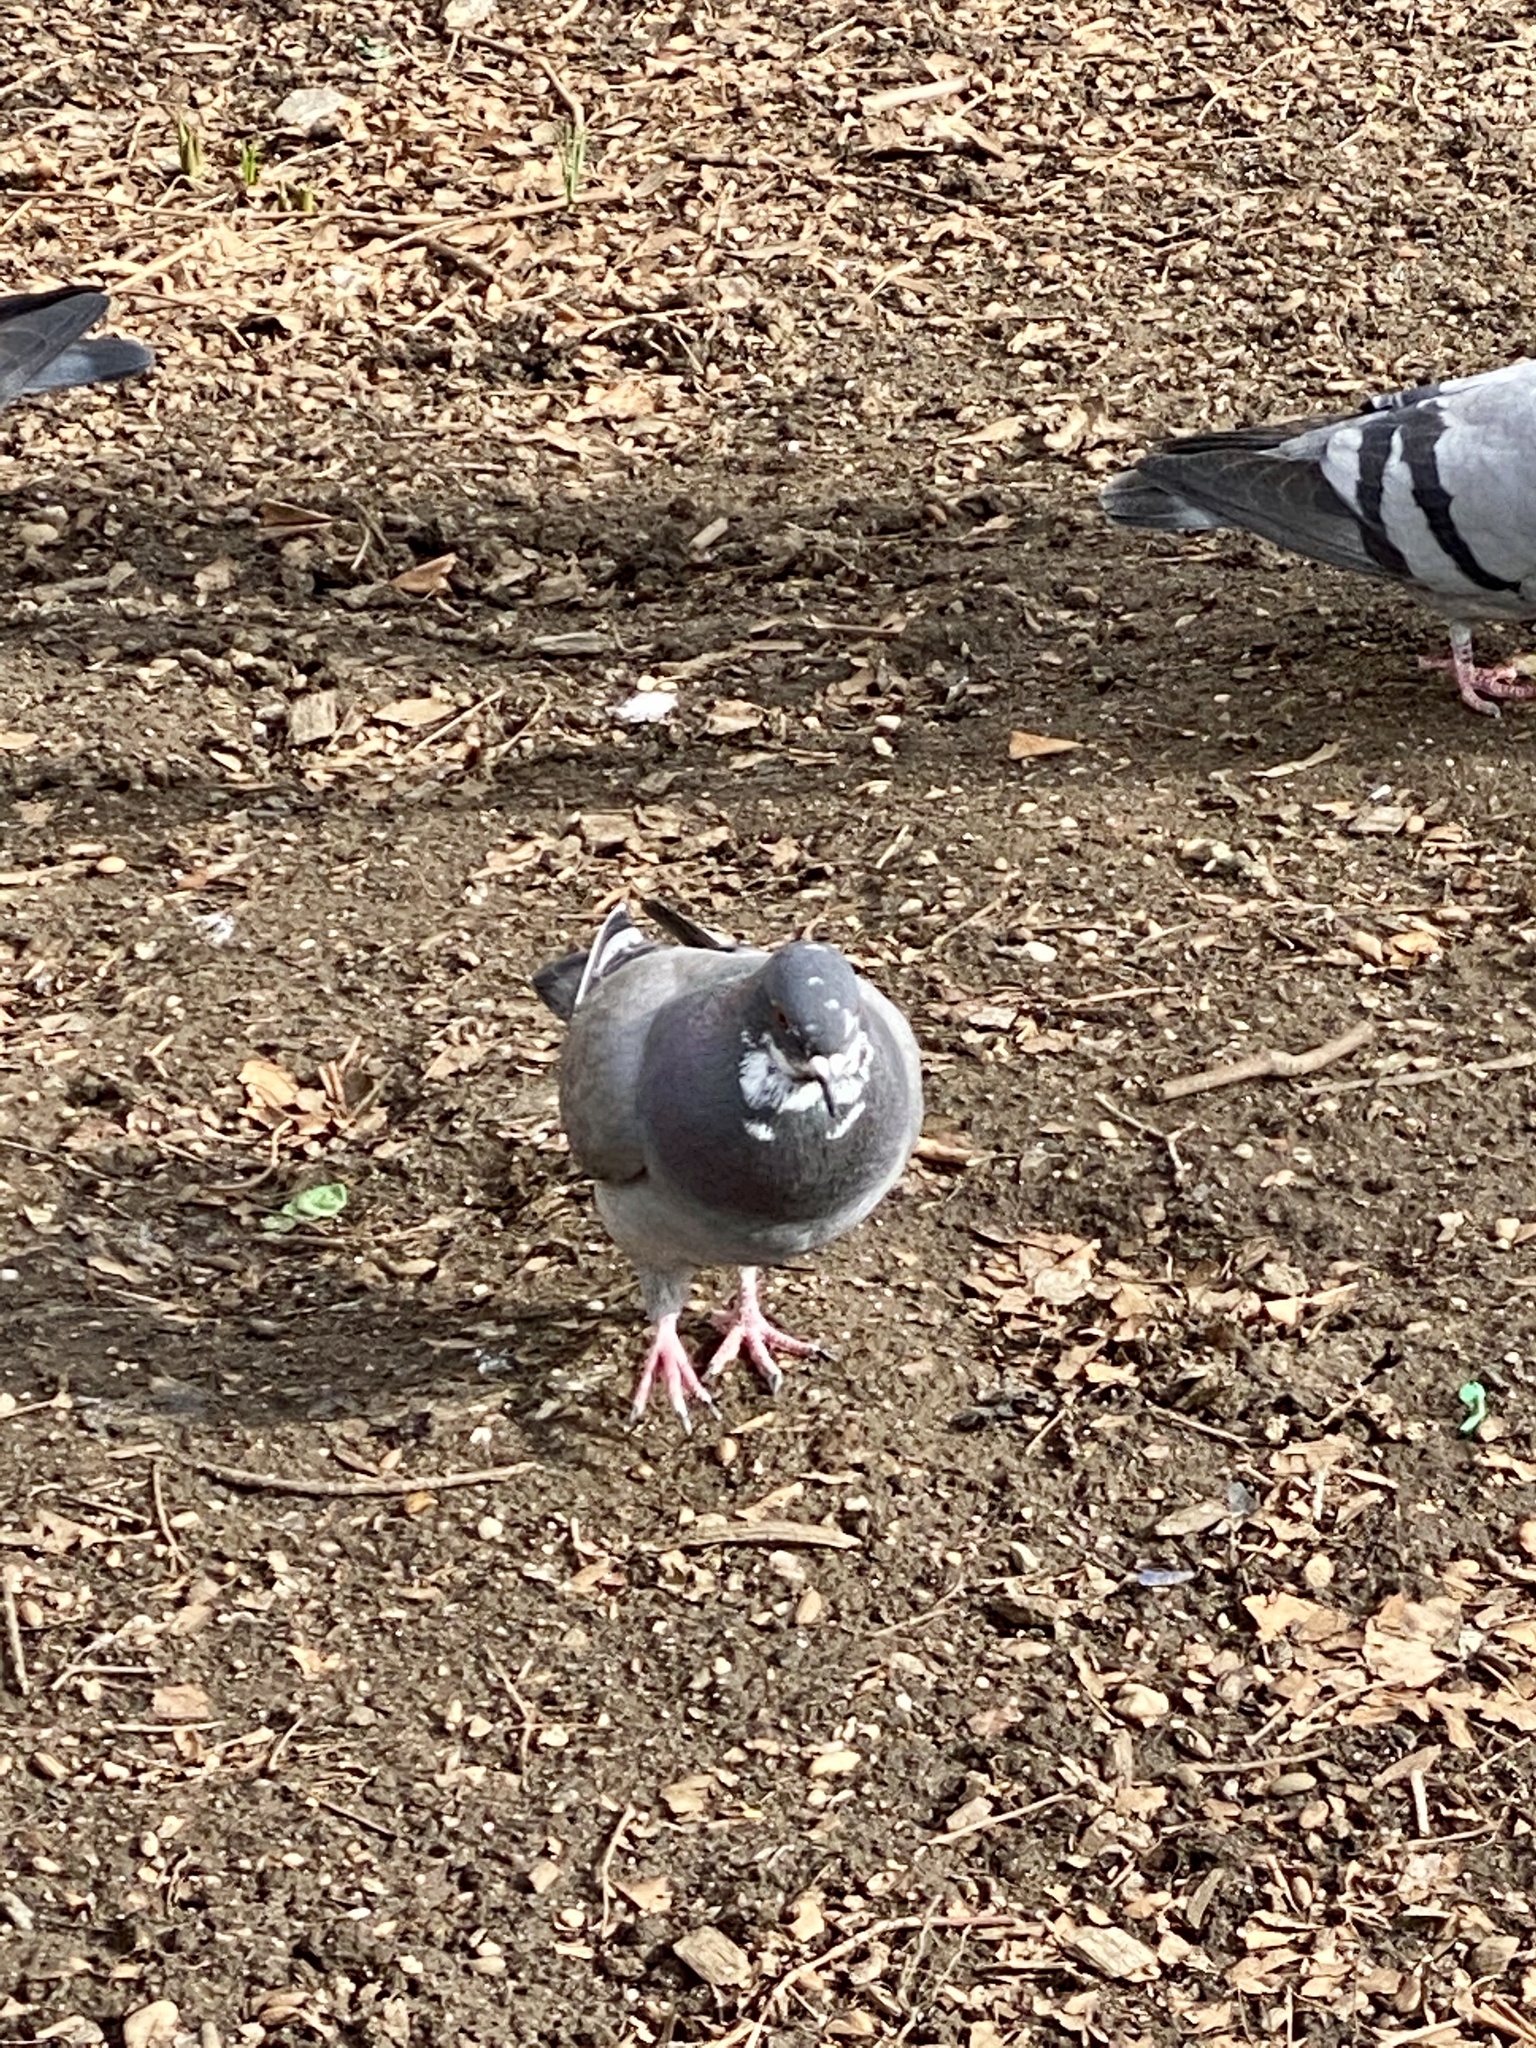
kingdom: Animalia
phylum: Chordata
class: Aves
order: Columbiformes
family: Columbidae
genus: Columba
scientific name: Columba livia
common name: Rock pigeon
